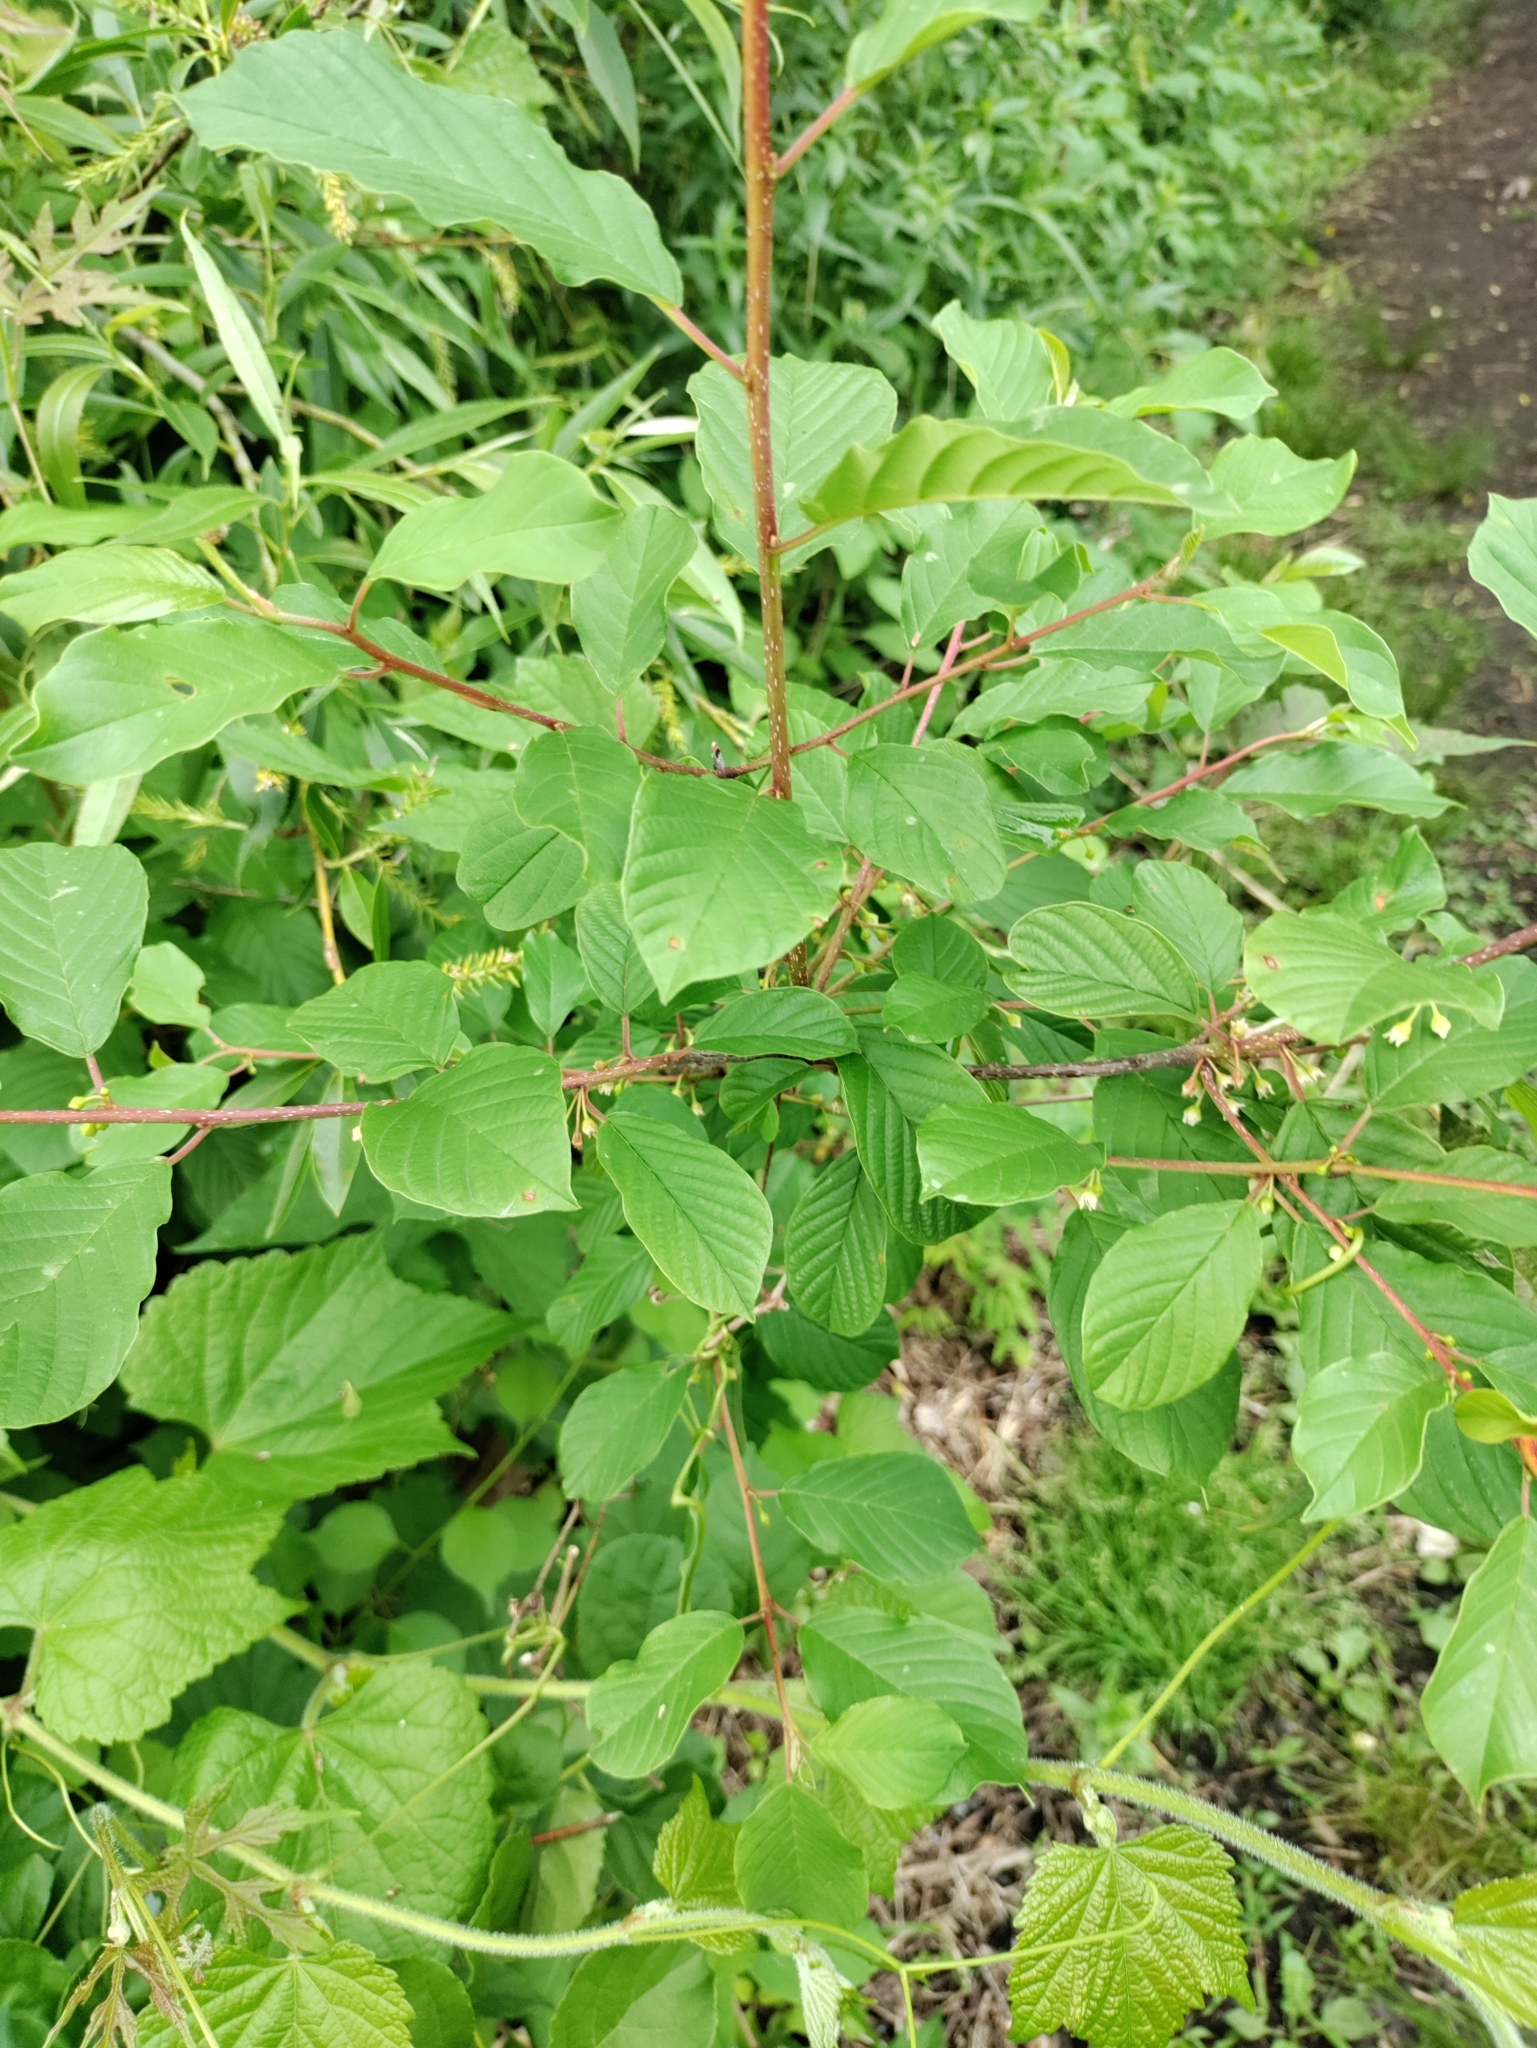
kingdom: Plantae
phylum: Tracheophyta
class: Magnoliopsida
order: Rosales
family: Rhamnaceae
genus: Frangula
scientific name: Frangula alnus
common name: Alder buckthorn
